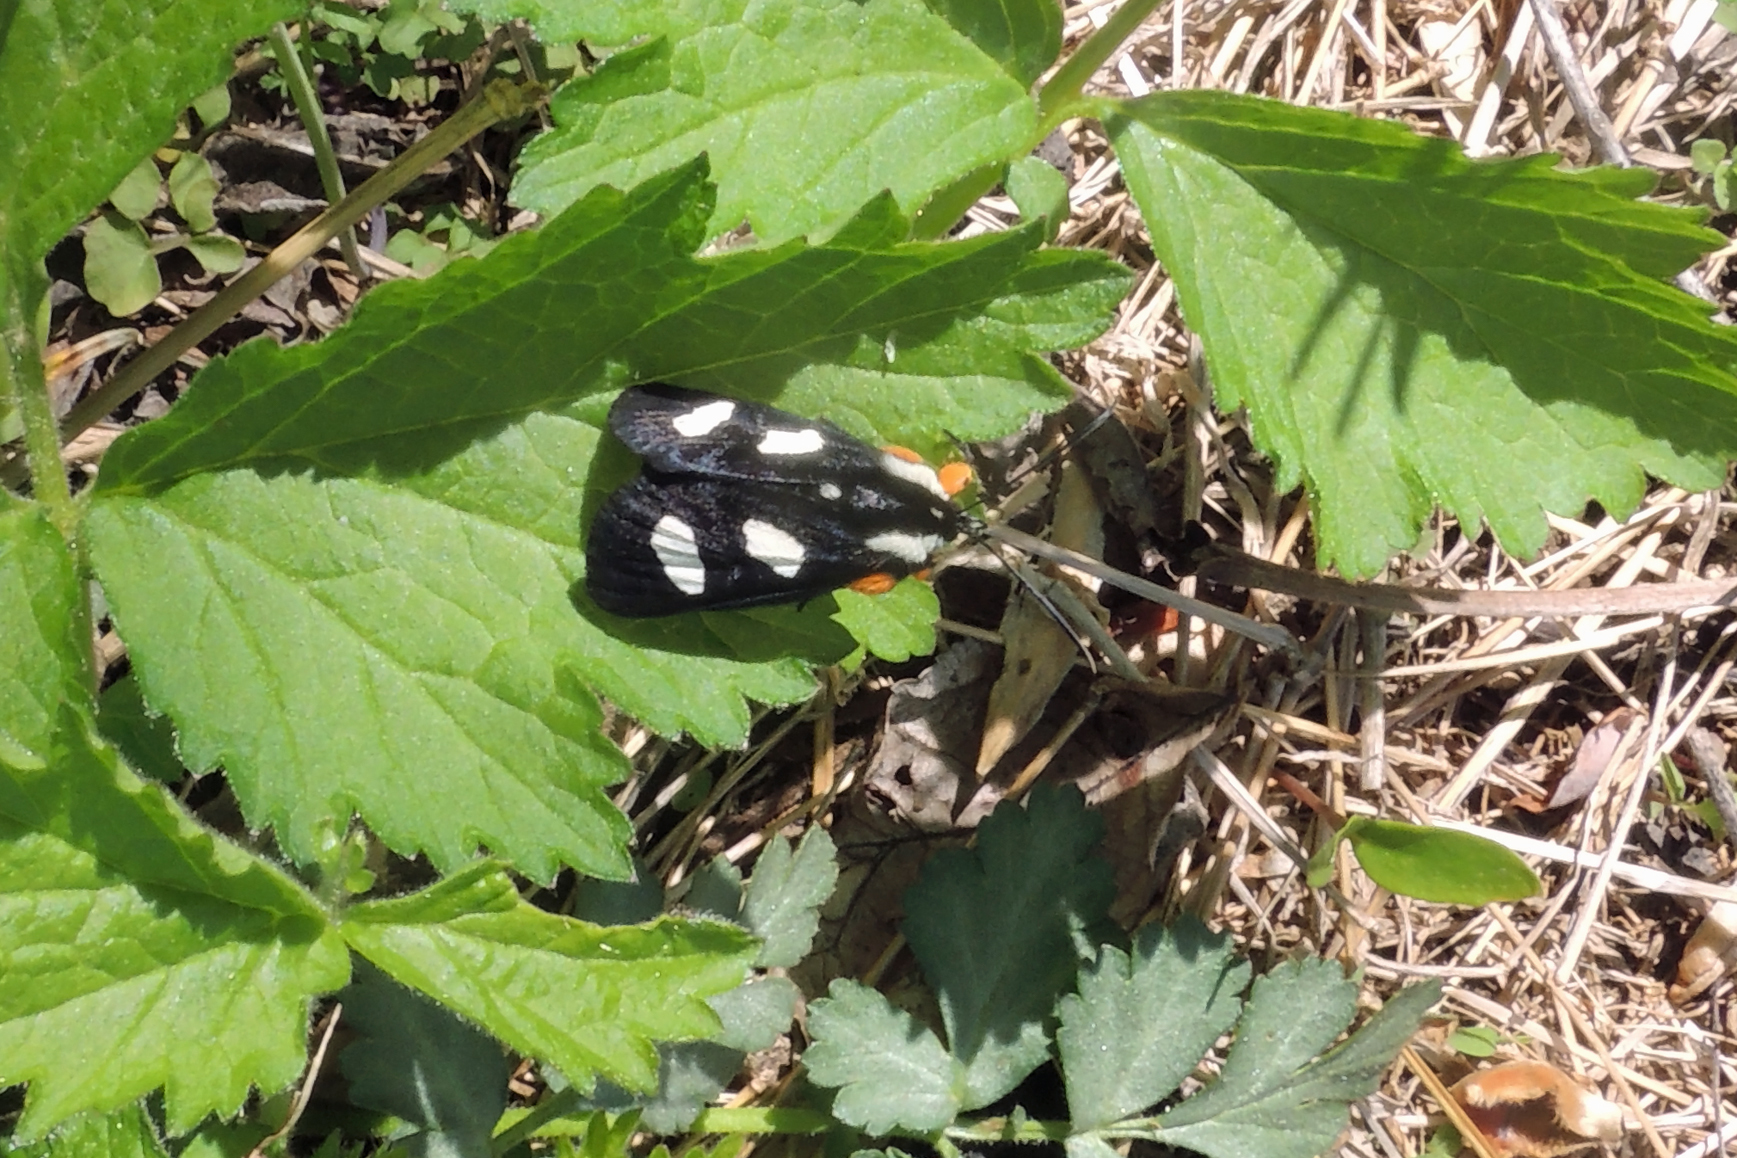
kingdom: Animalia
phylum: Arthropoda
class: Insecta
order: Lepidoptera
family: Noctuidae
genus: Alypia
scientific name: Alypia octomaculata
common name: Eight-spotted forester
